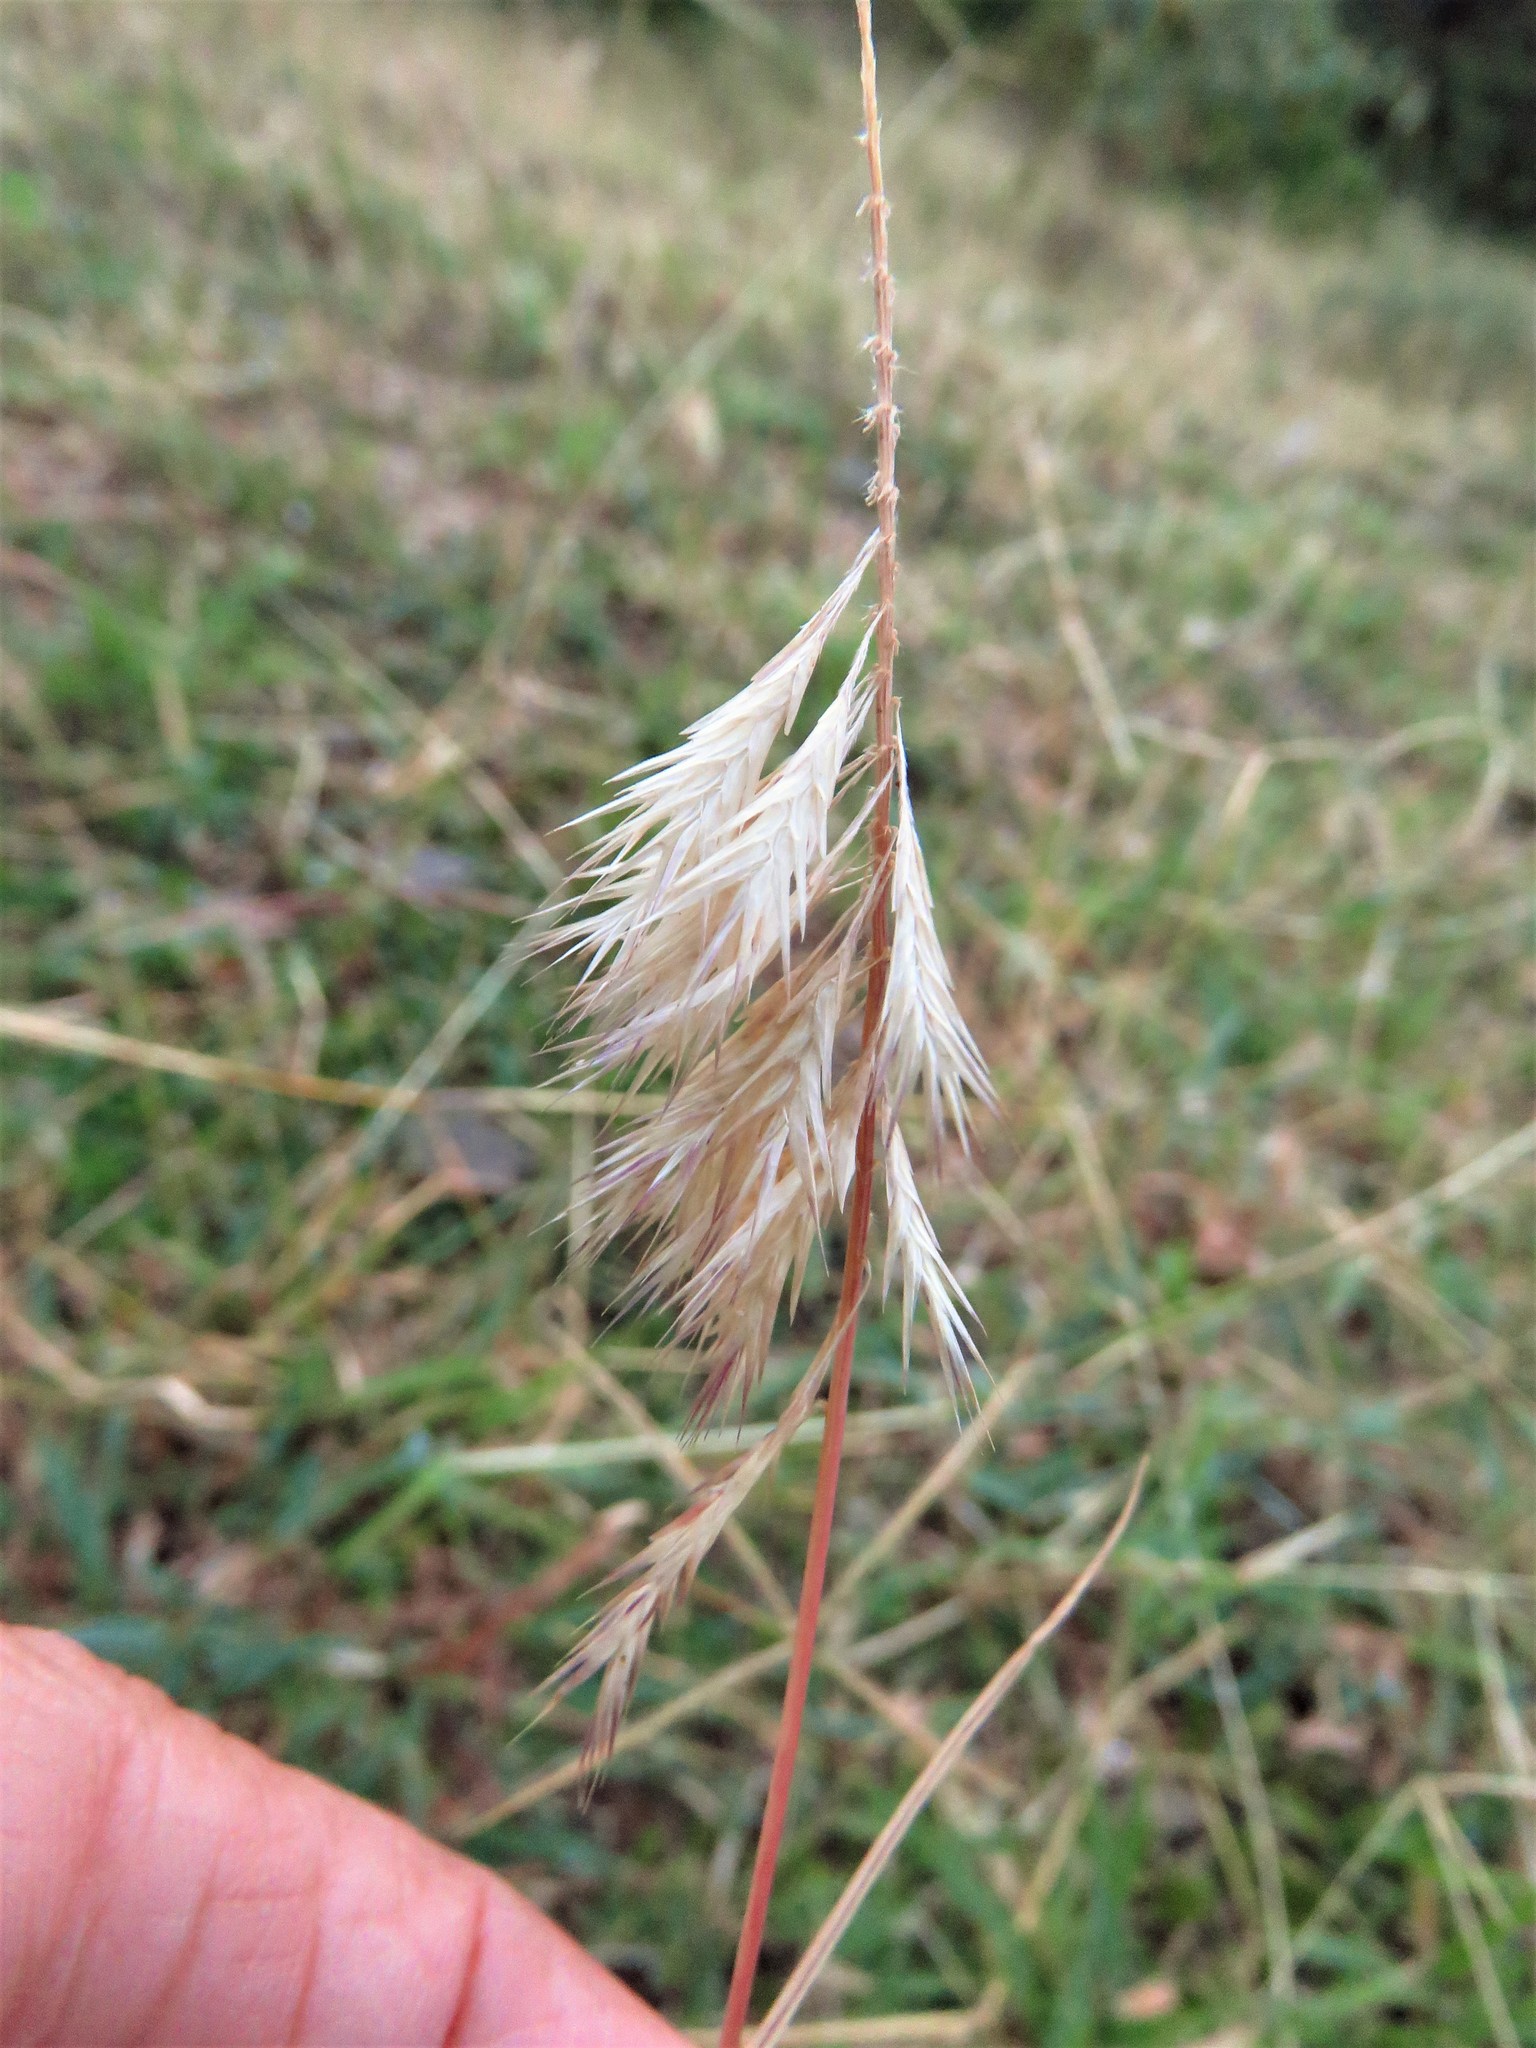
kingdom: Plantae
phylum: Tracheophyta
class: Liliopsida
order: Poales
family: Poaceae
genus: Harpachne
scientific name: Harpachne schimperi
